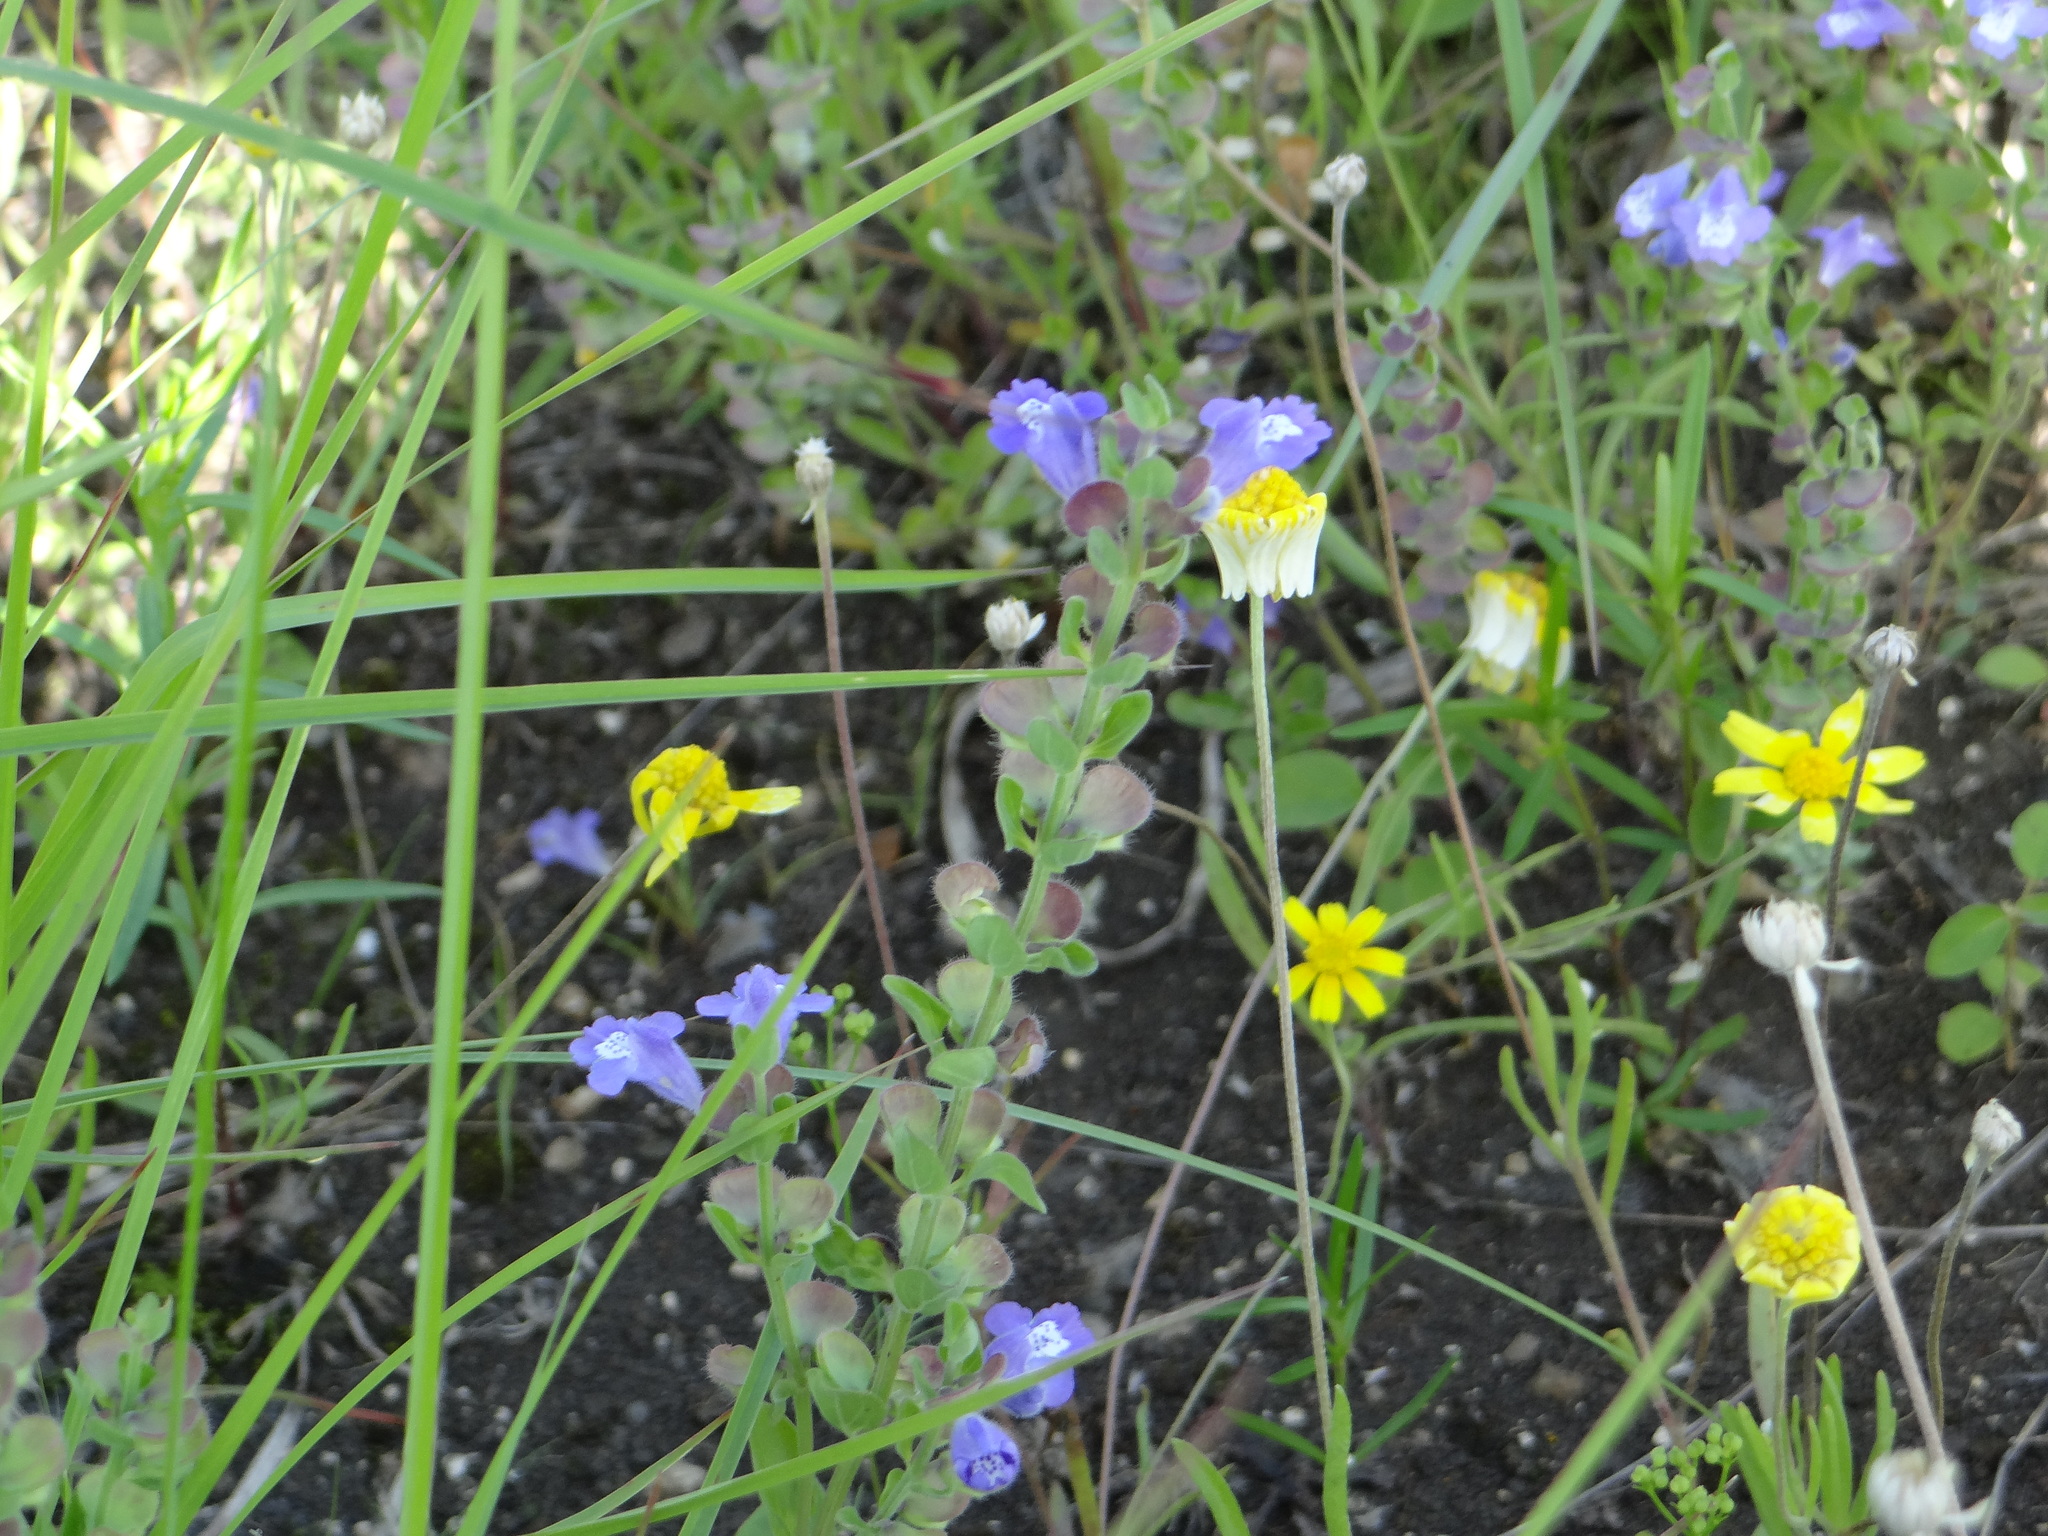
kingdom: Plantae
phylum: Tracheophyta
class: Magnoliopsida
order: Lamiales
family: Lamiaceae
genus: Scutellaria
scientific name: Scutellaria drummondii
